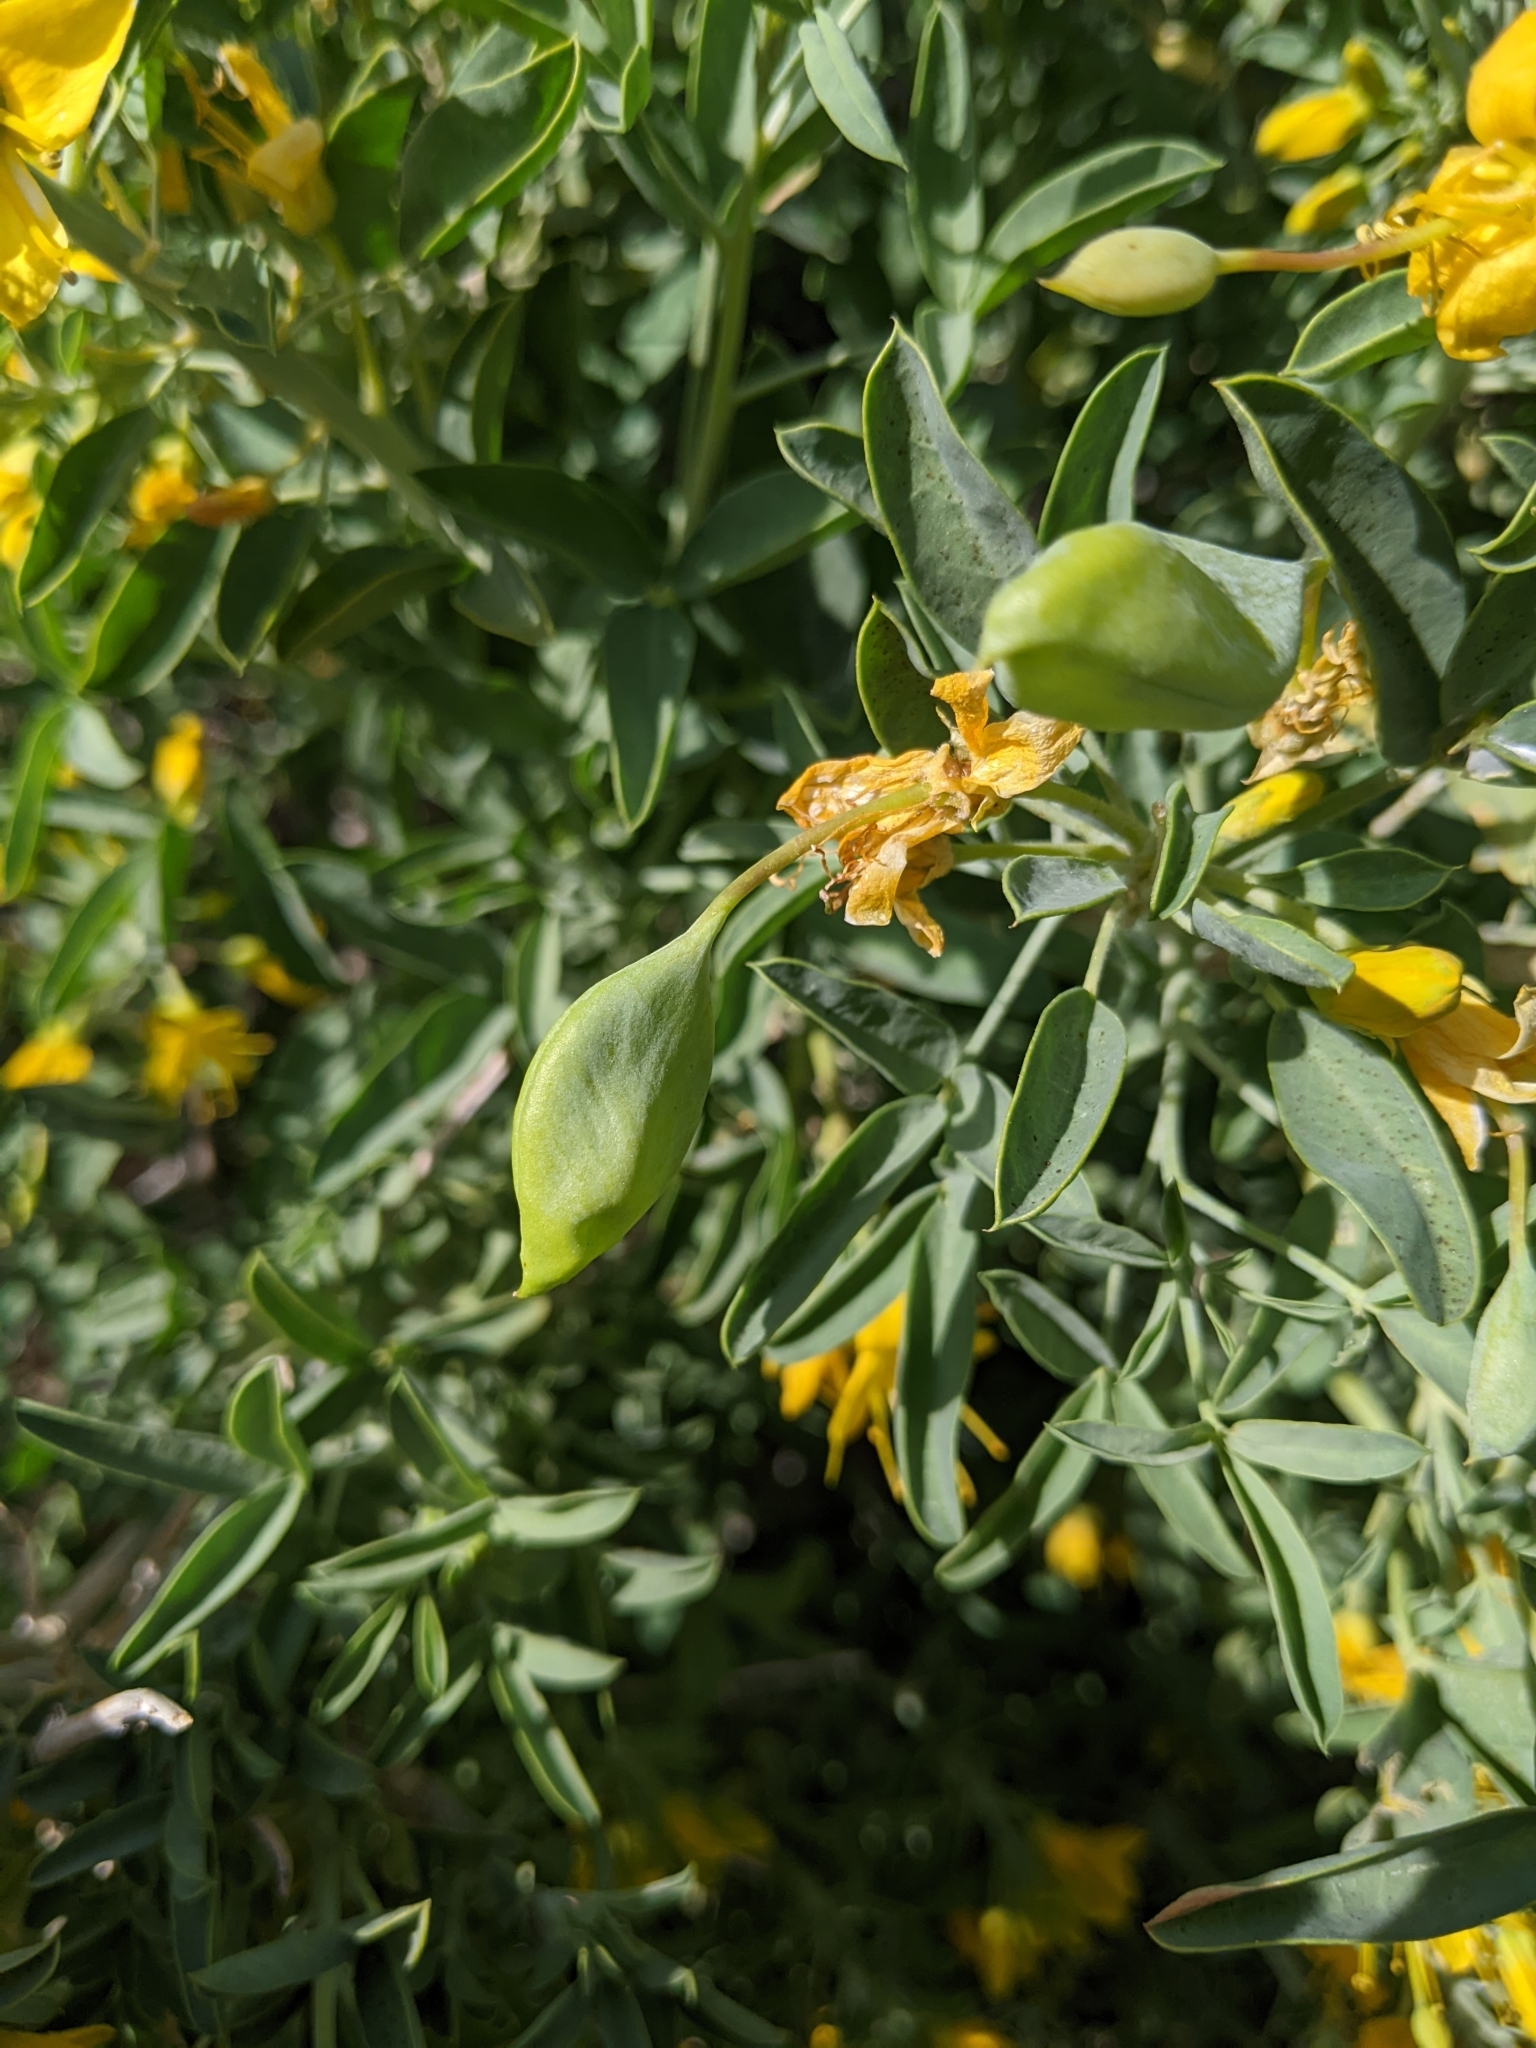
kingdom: Plantae
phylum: Tracheophyta
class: Magnoliopsida
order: Brassicales
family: Cleomaceae
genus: Cleomella
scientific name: Cleomella arborea
